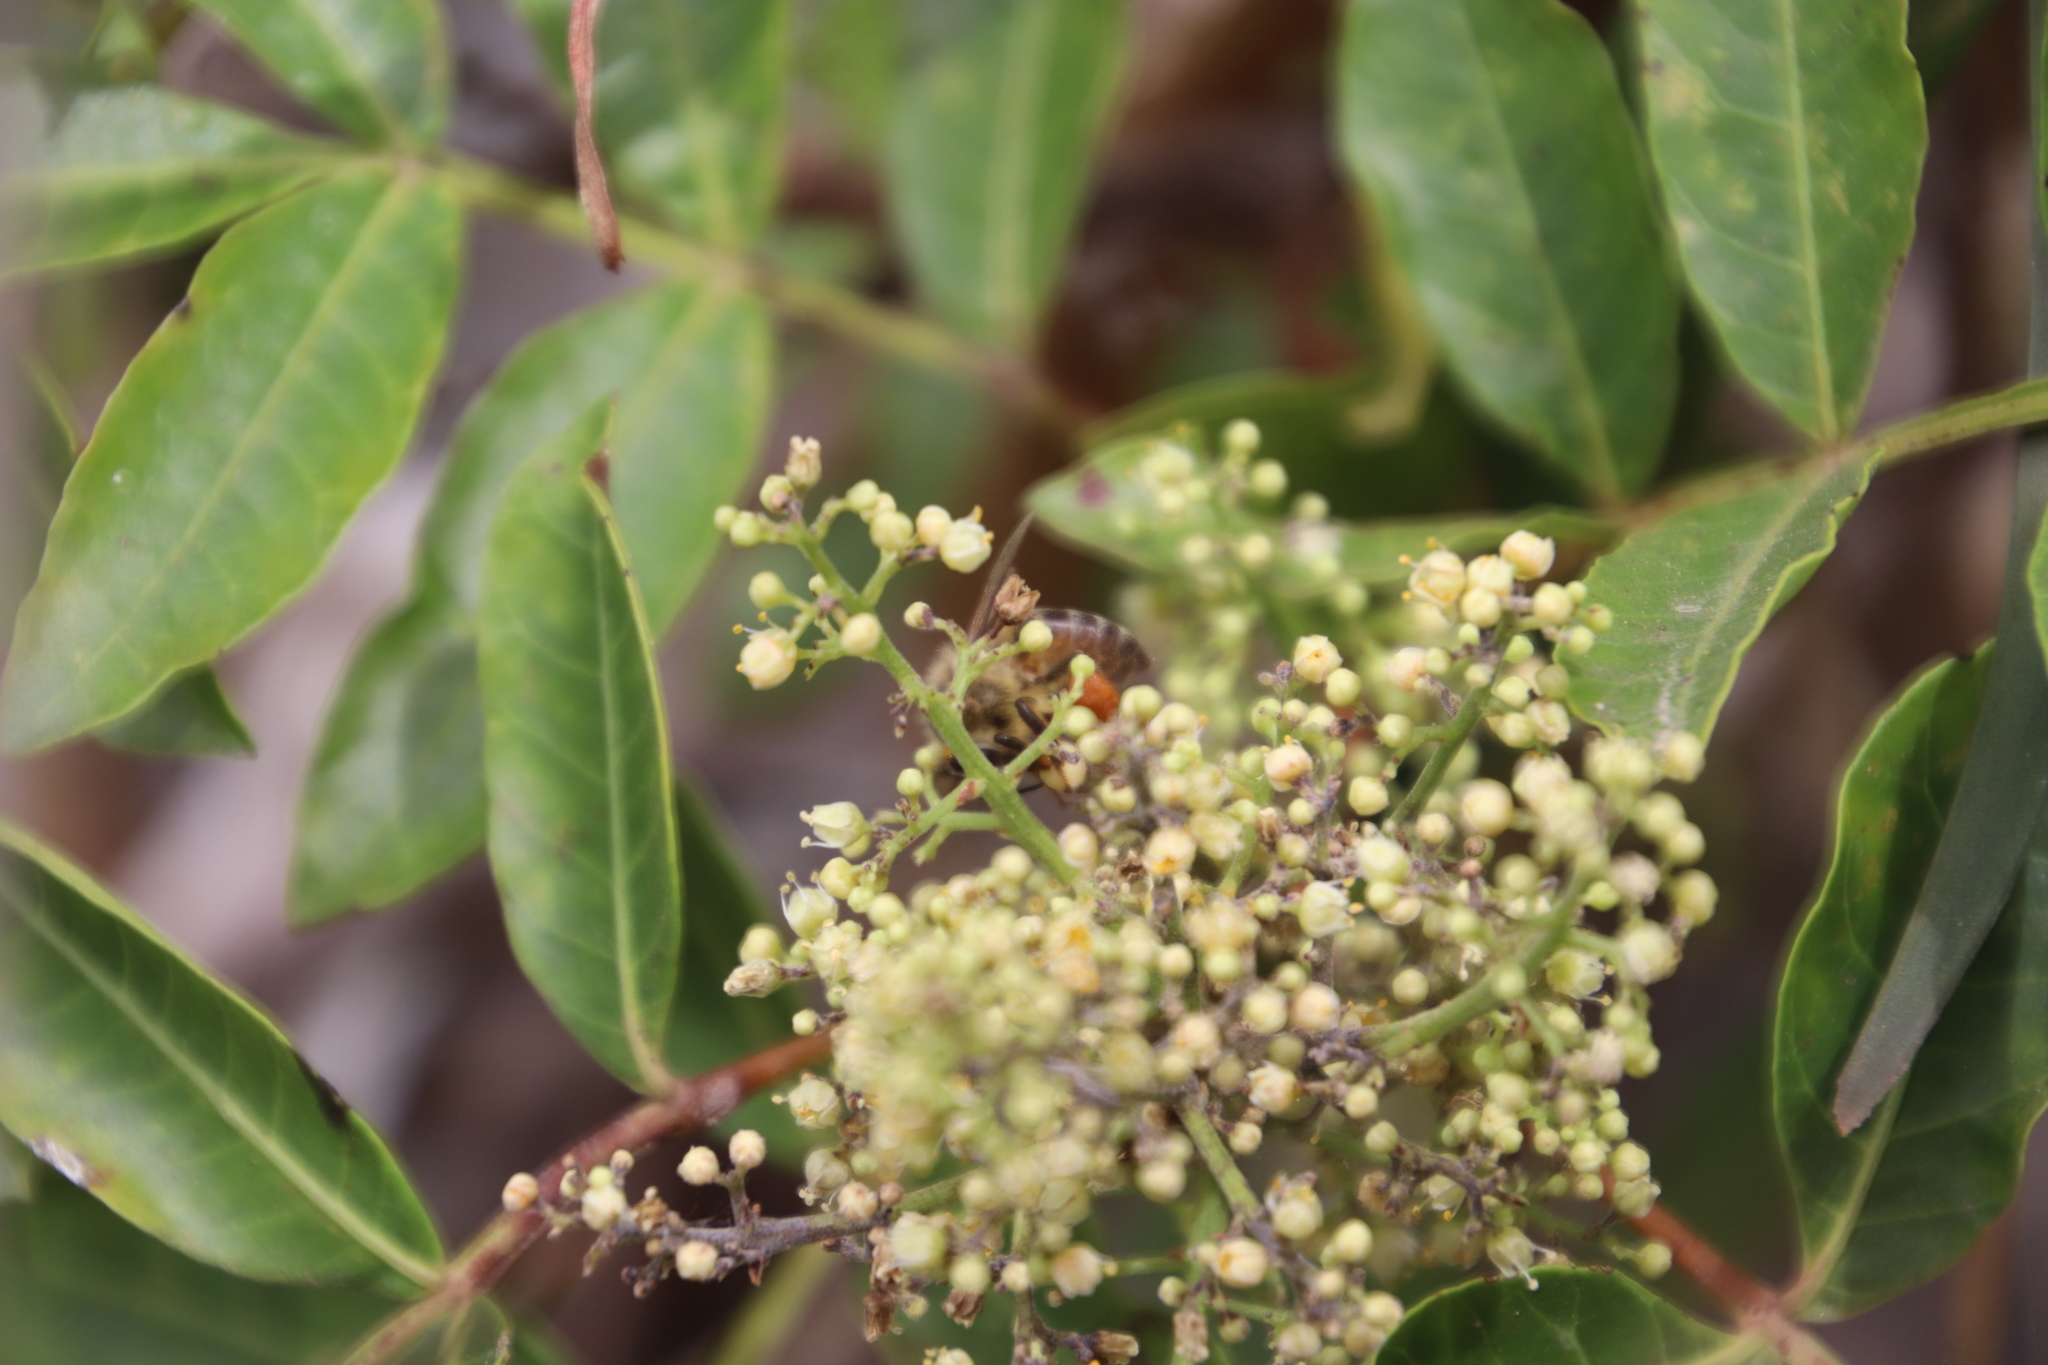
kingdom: Animalia
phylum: Arthropoda
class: Insecta
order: Hymenoptera
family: Apidae
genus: Apis
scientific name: Apis mellifera
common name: Honey bee
